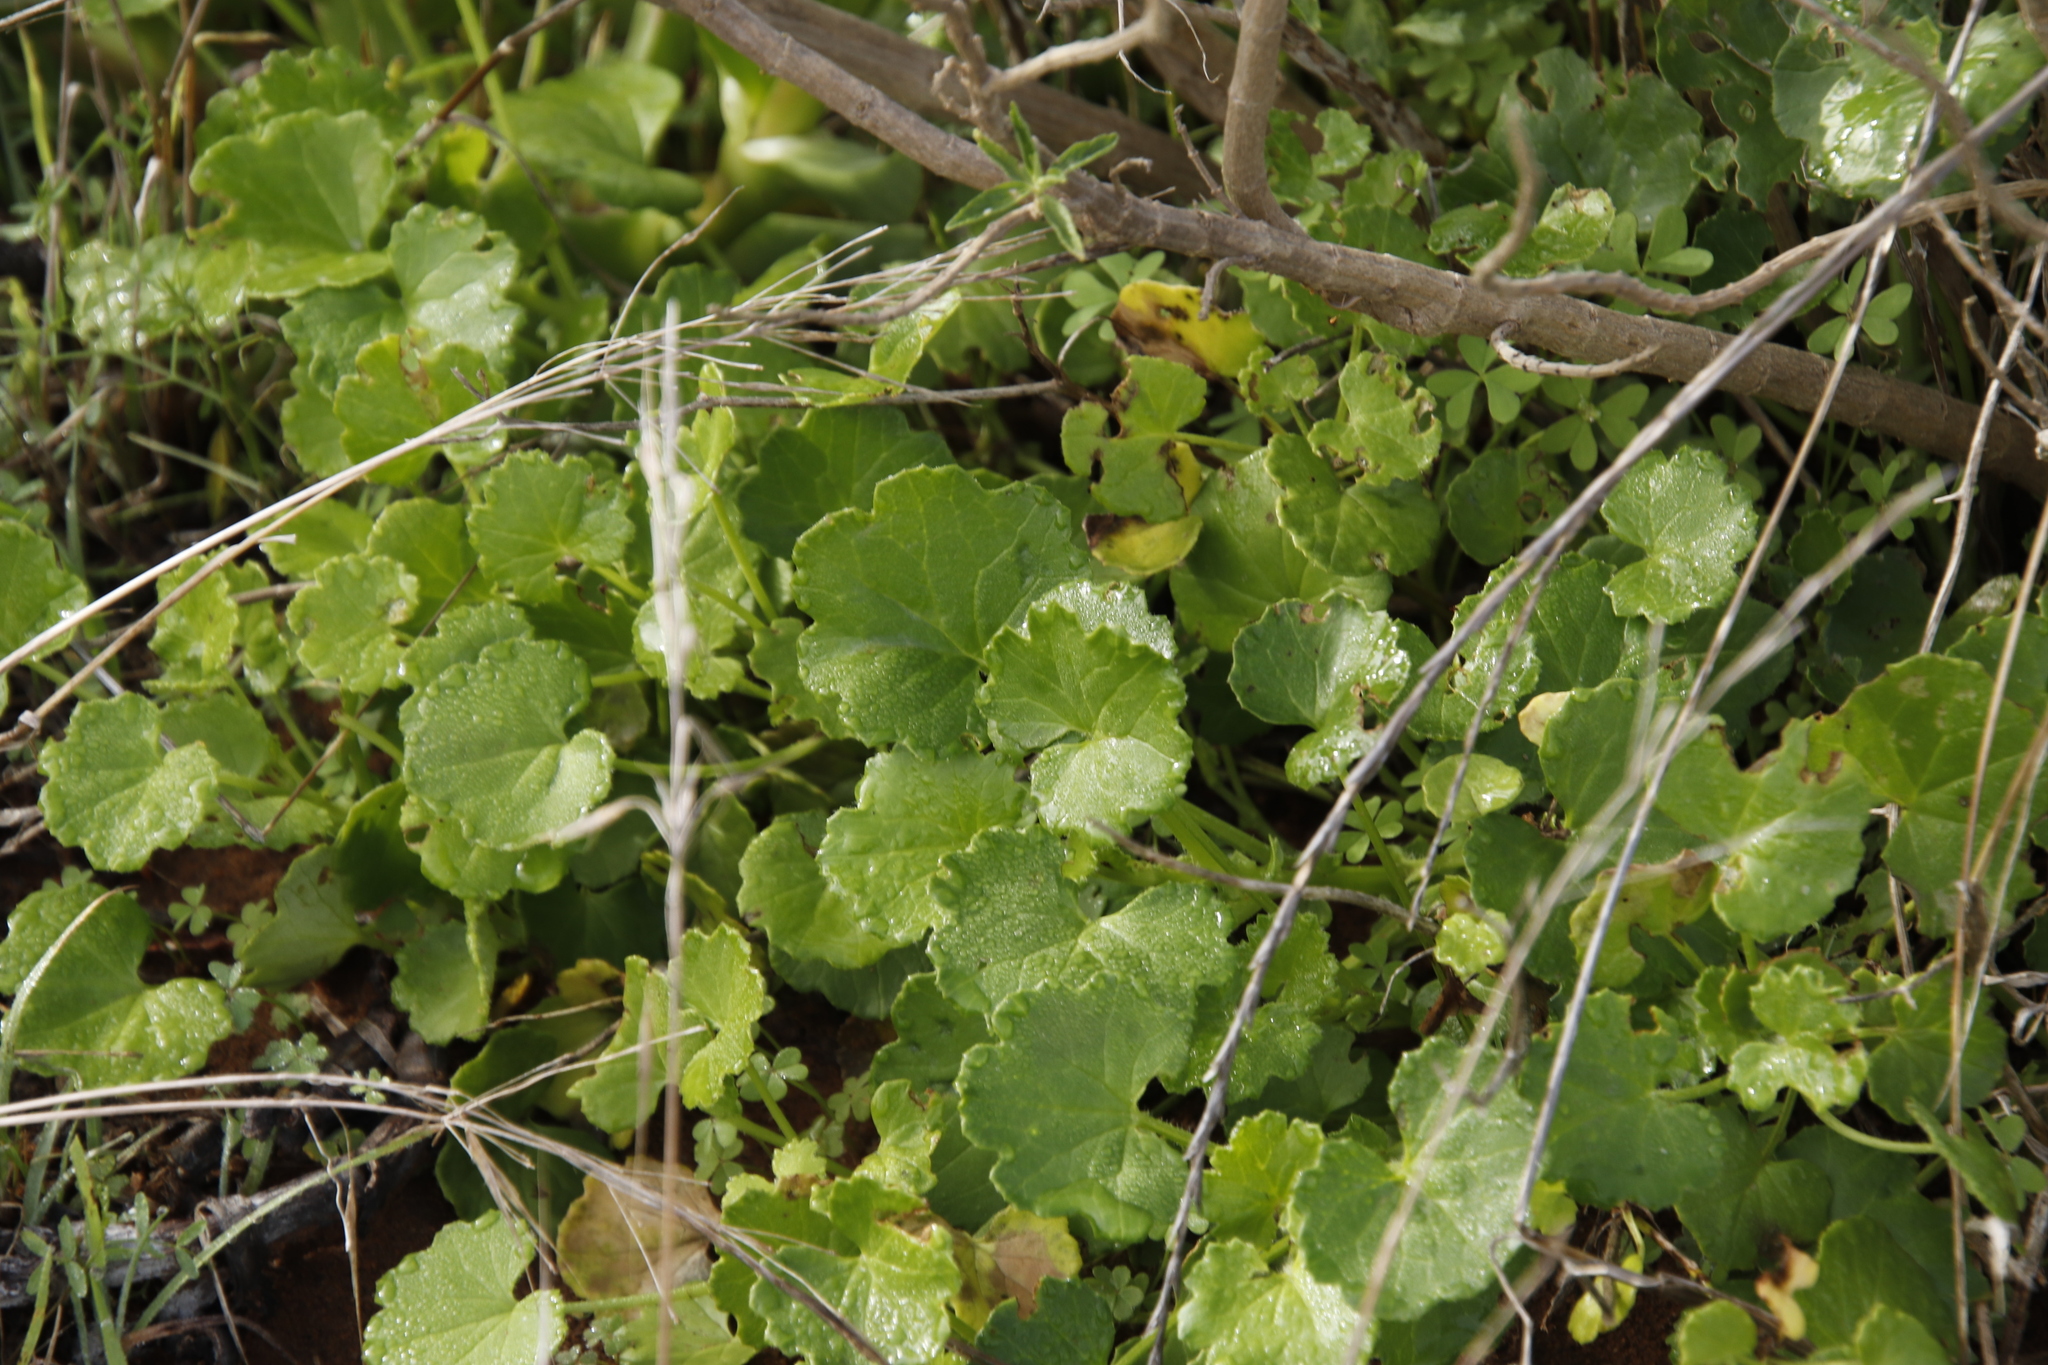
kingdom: Plantae
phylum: Tracheophyta
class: Magnoliopsida
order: Asterales
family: Asteraceae
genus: Cineraria
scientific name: Cineraria geifolia
